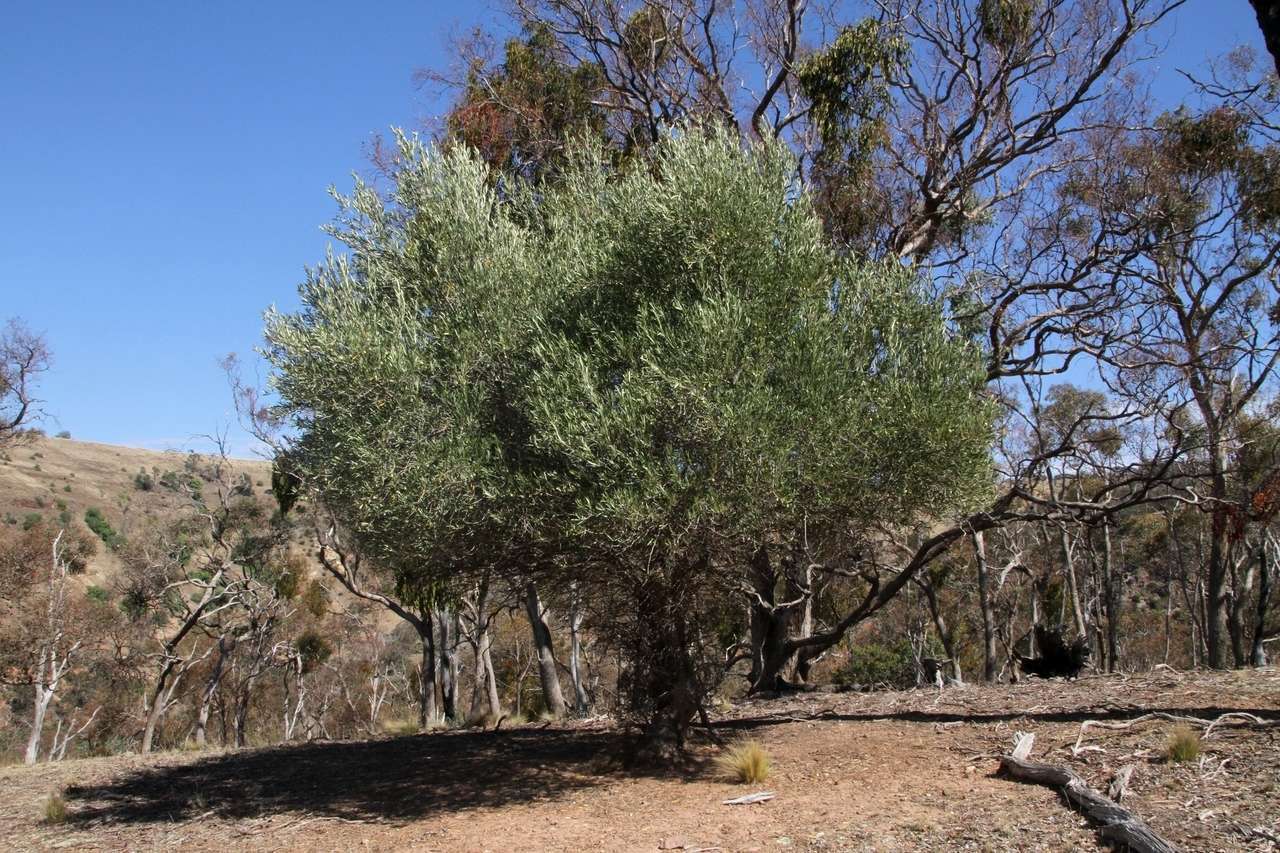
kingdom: Plantae
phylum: Tracheophyta
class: Magnoliopsida
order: Lamiales
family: Oleaceae
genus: Olea
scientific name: Olea europaea
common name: Olive
